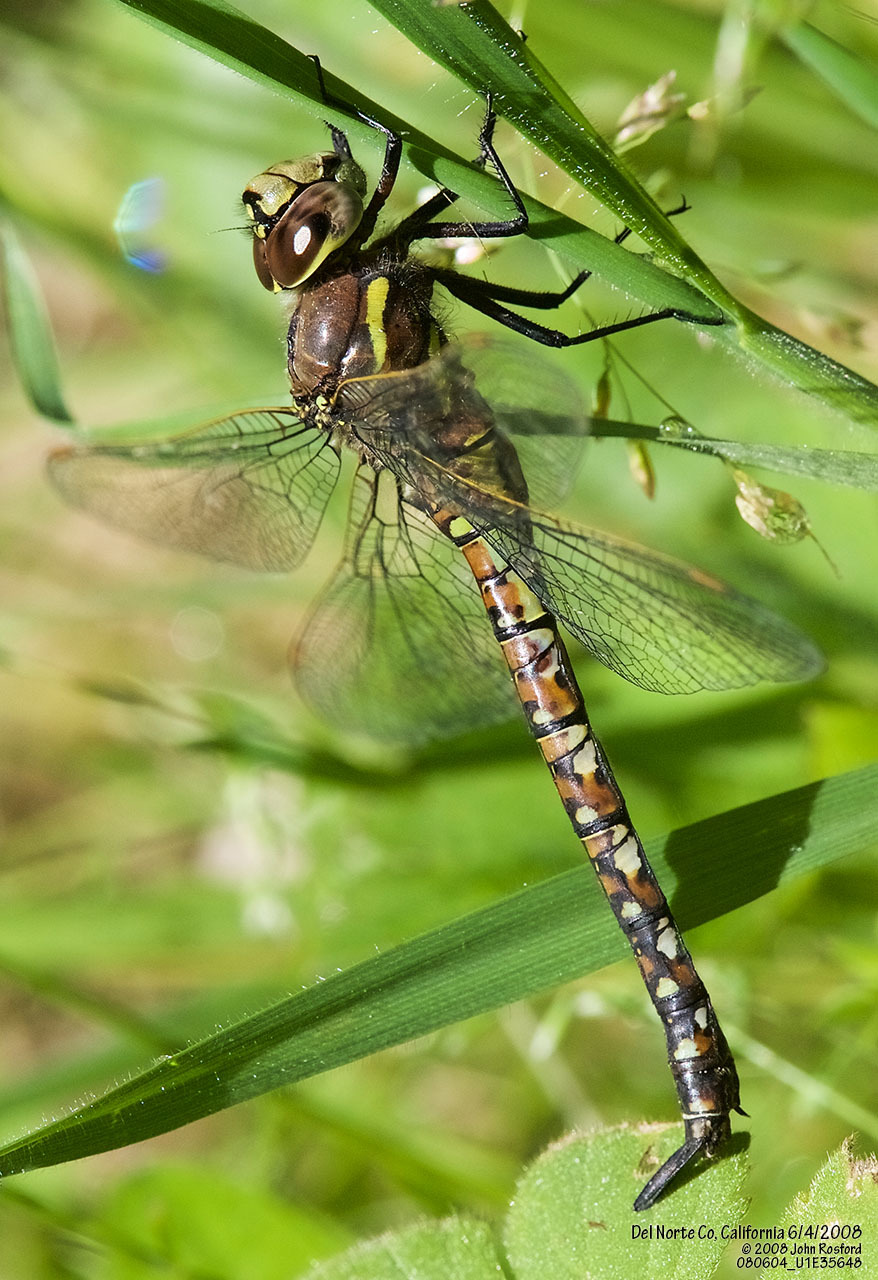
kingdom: Animalia
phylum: Arthropoda
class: Insecta
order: Odonata
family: Aeshnidae
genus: Rhionaeschna
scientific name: Rhionaeschna californica
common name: California darner
